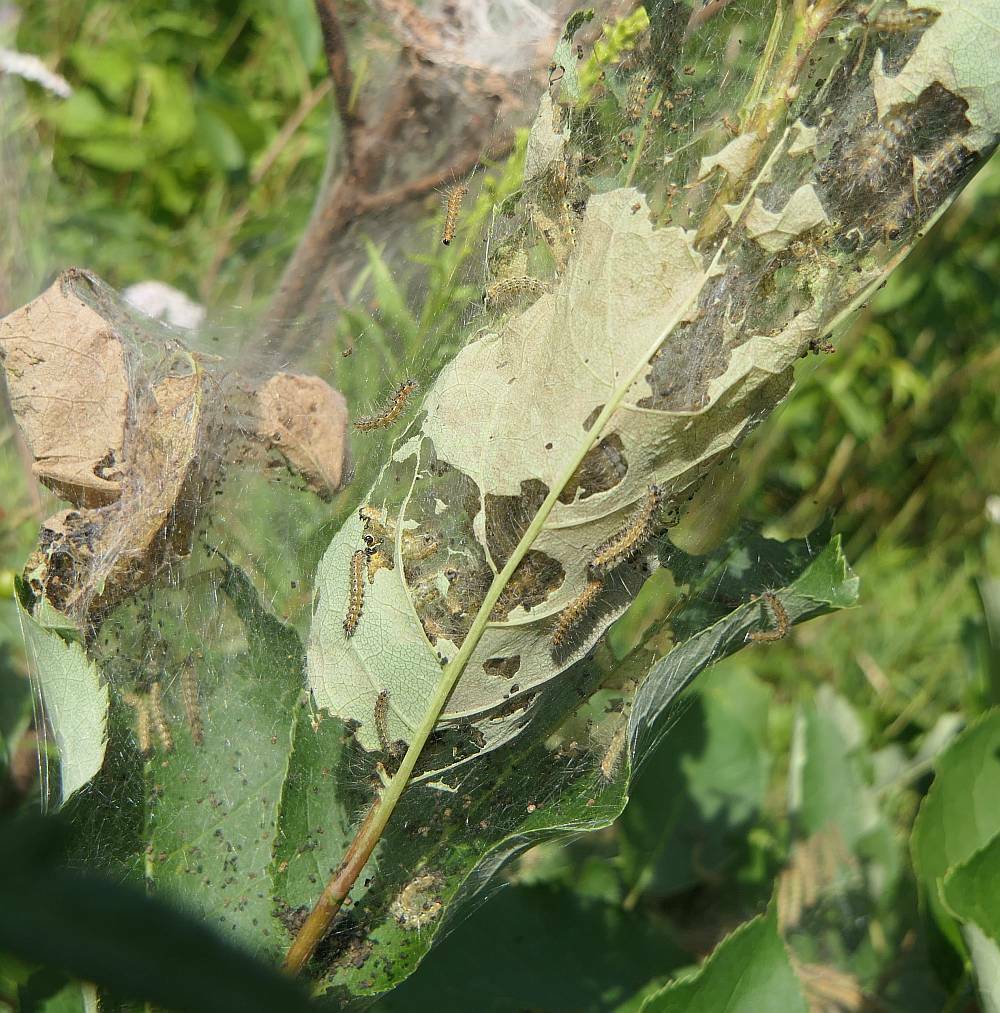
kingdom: Animalia
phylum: Arthropoda
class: Insecta
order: Lepidoptera
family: Erebidae
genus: Hyphantria
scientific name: Hyphantria cunea
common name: American white moth
